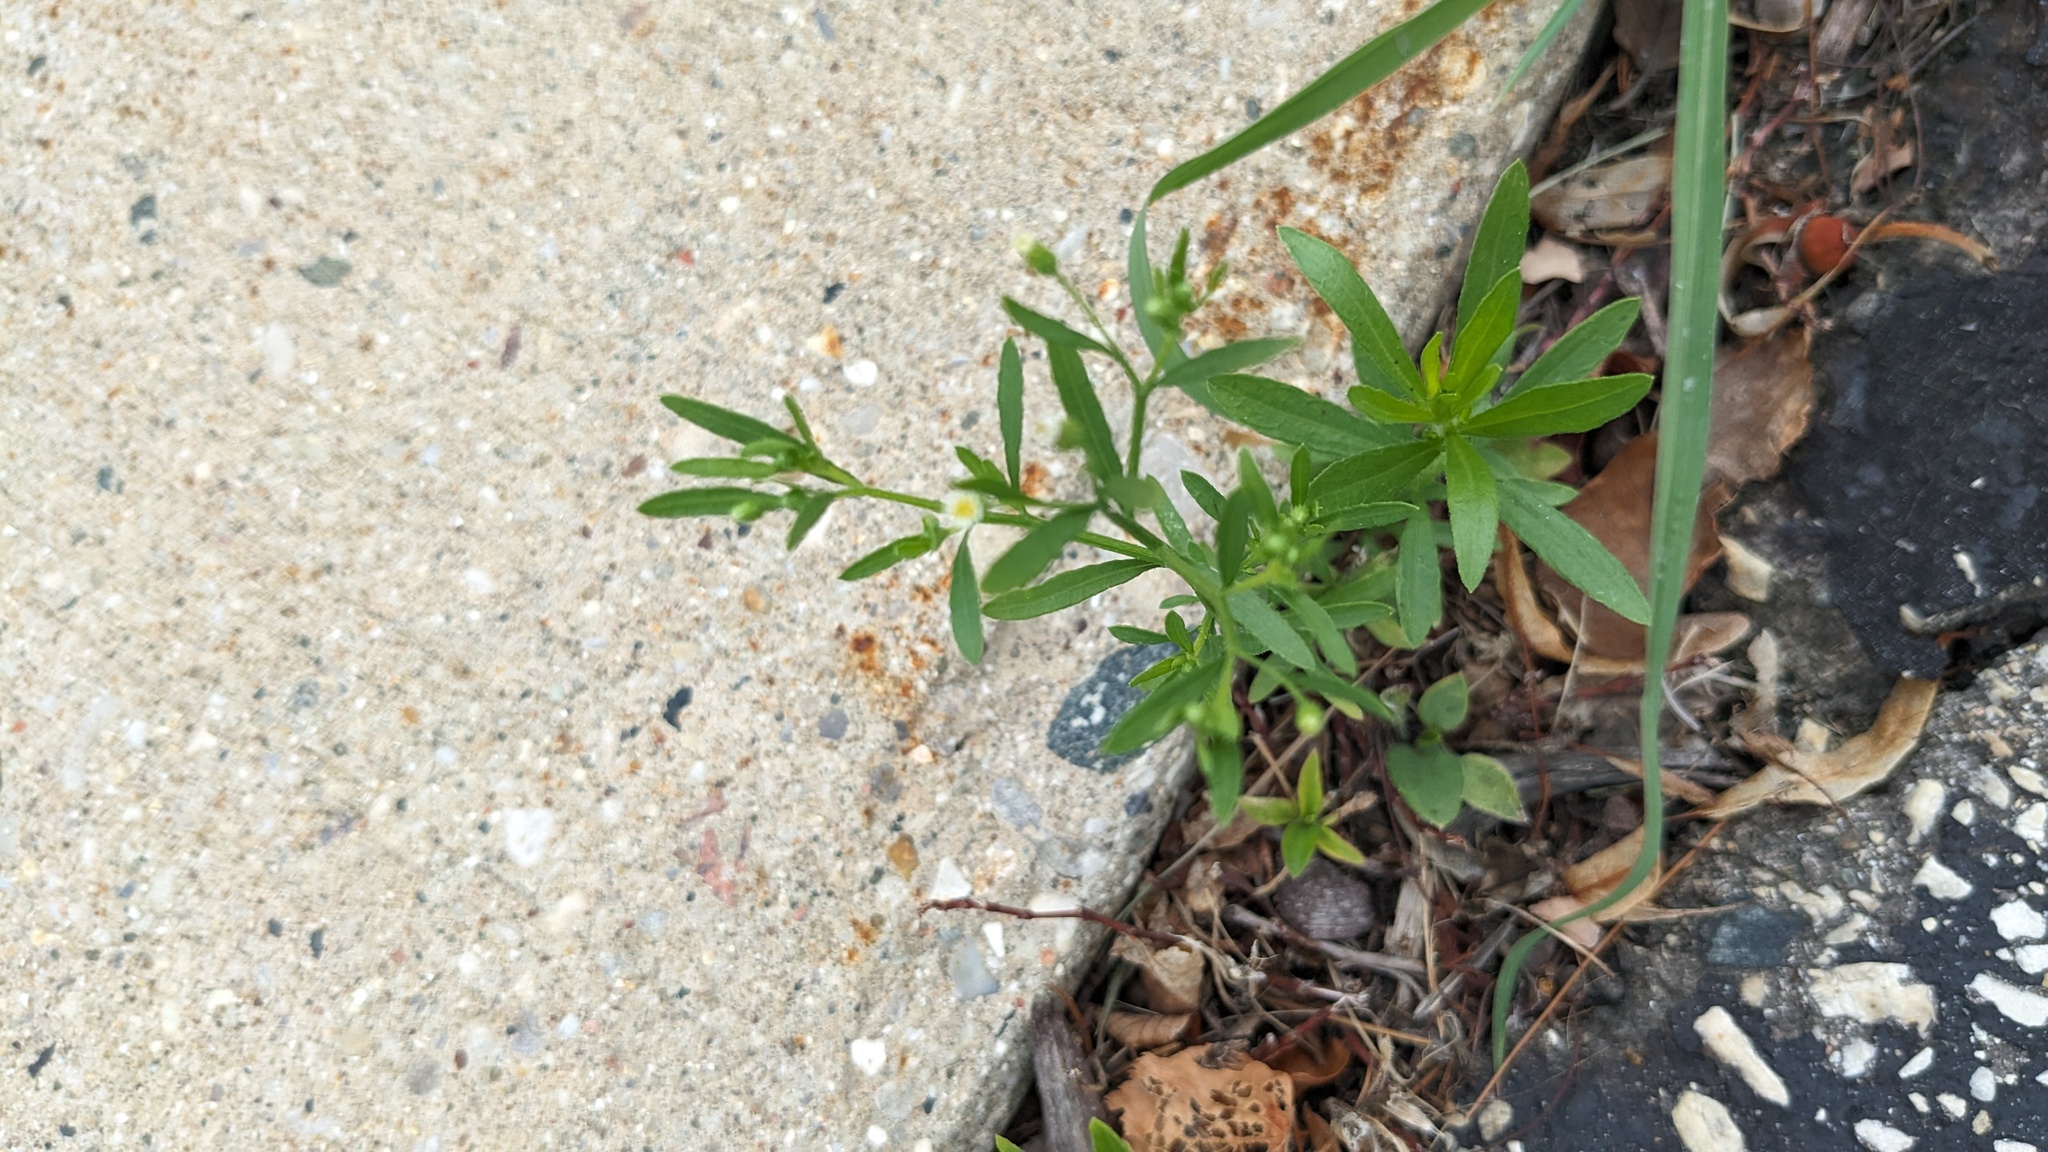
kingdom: Plantae
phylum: Tracheophyta
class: Magnoliopsida
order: Asterales
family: Asteraceae
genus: Erigeron
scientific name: Erigeron canadensis
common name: Canadian fleabane
